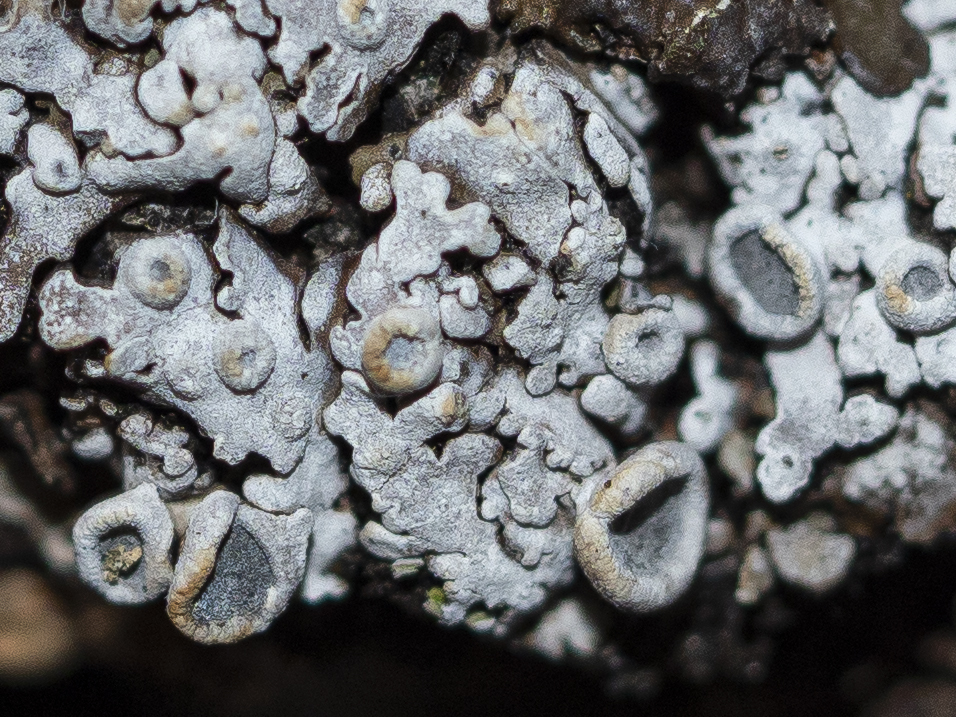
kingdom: Fungi
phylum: Ascomycota
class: Lecanoromycetes
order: Caliciales
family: Physciaceae
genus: Physconia
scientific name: Physconia distorta
